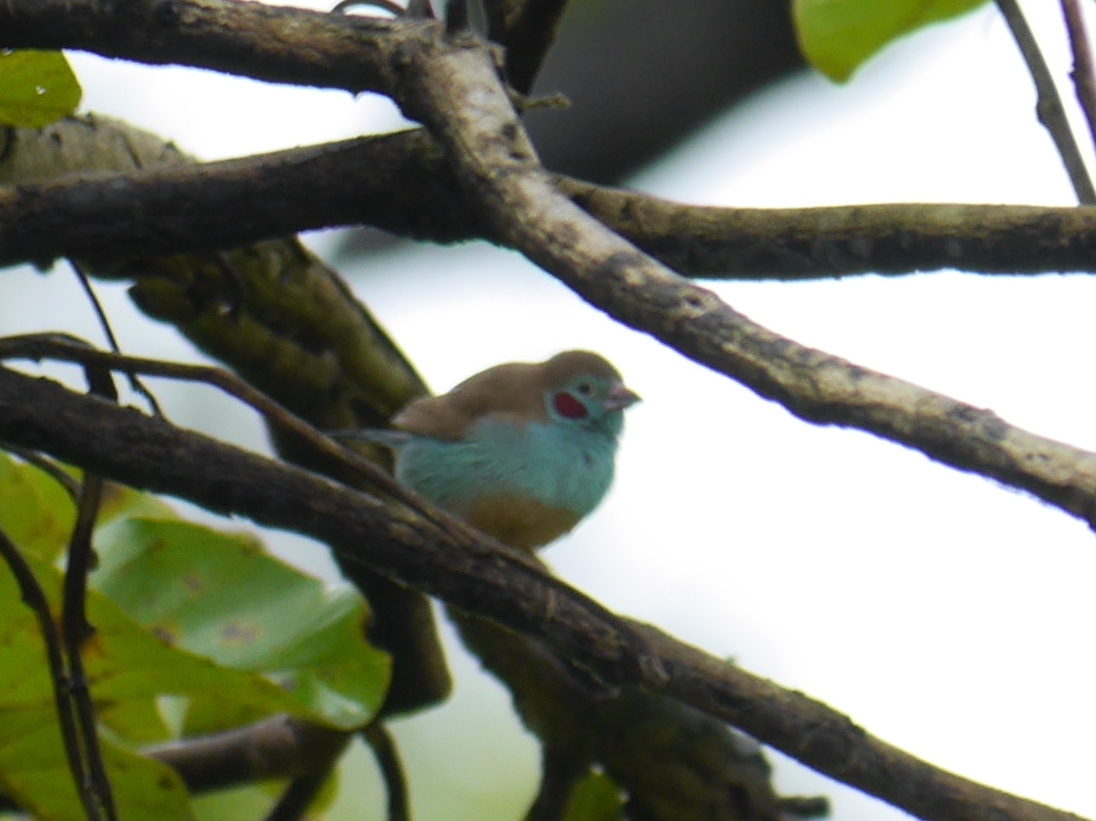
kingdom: Animalia
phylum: Chordata
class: Aves
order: Passeriformes
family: Estrildidae
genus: Uraeginthus
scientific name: Uraeginthus bengalus
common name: Red-cheeked cordon-bleu
